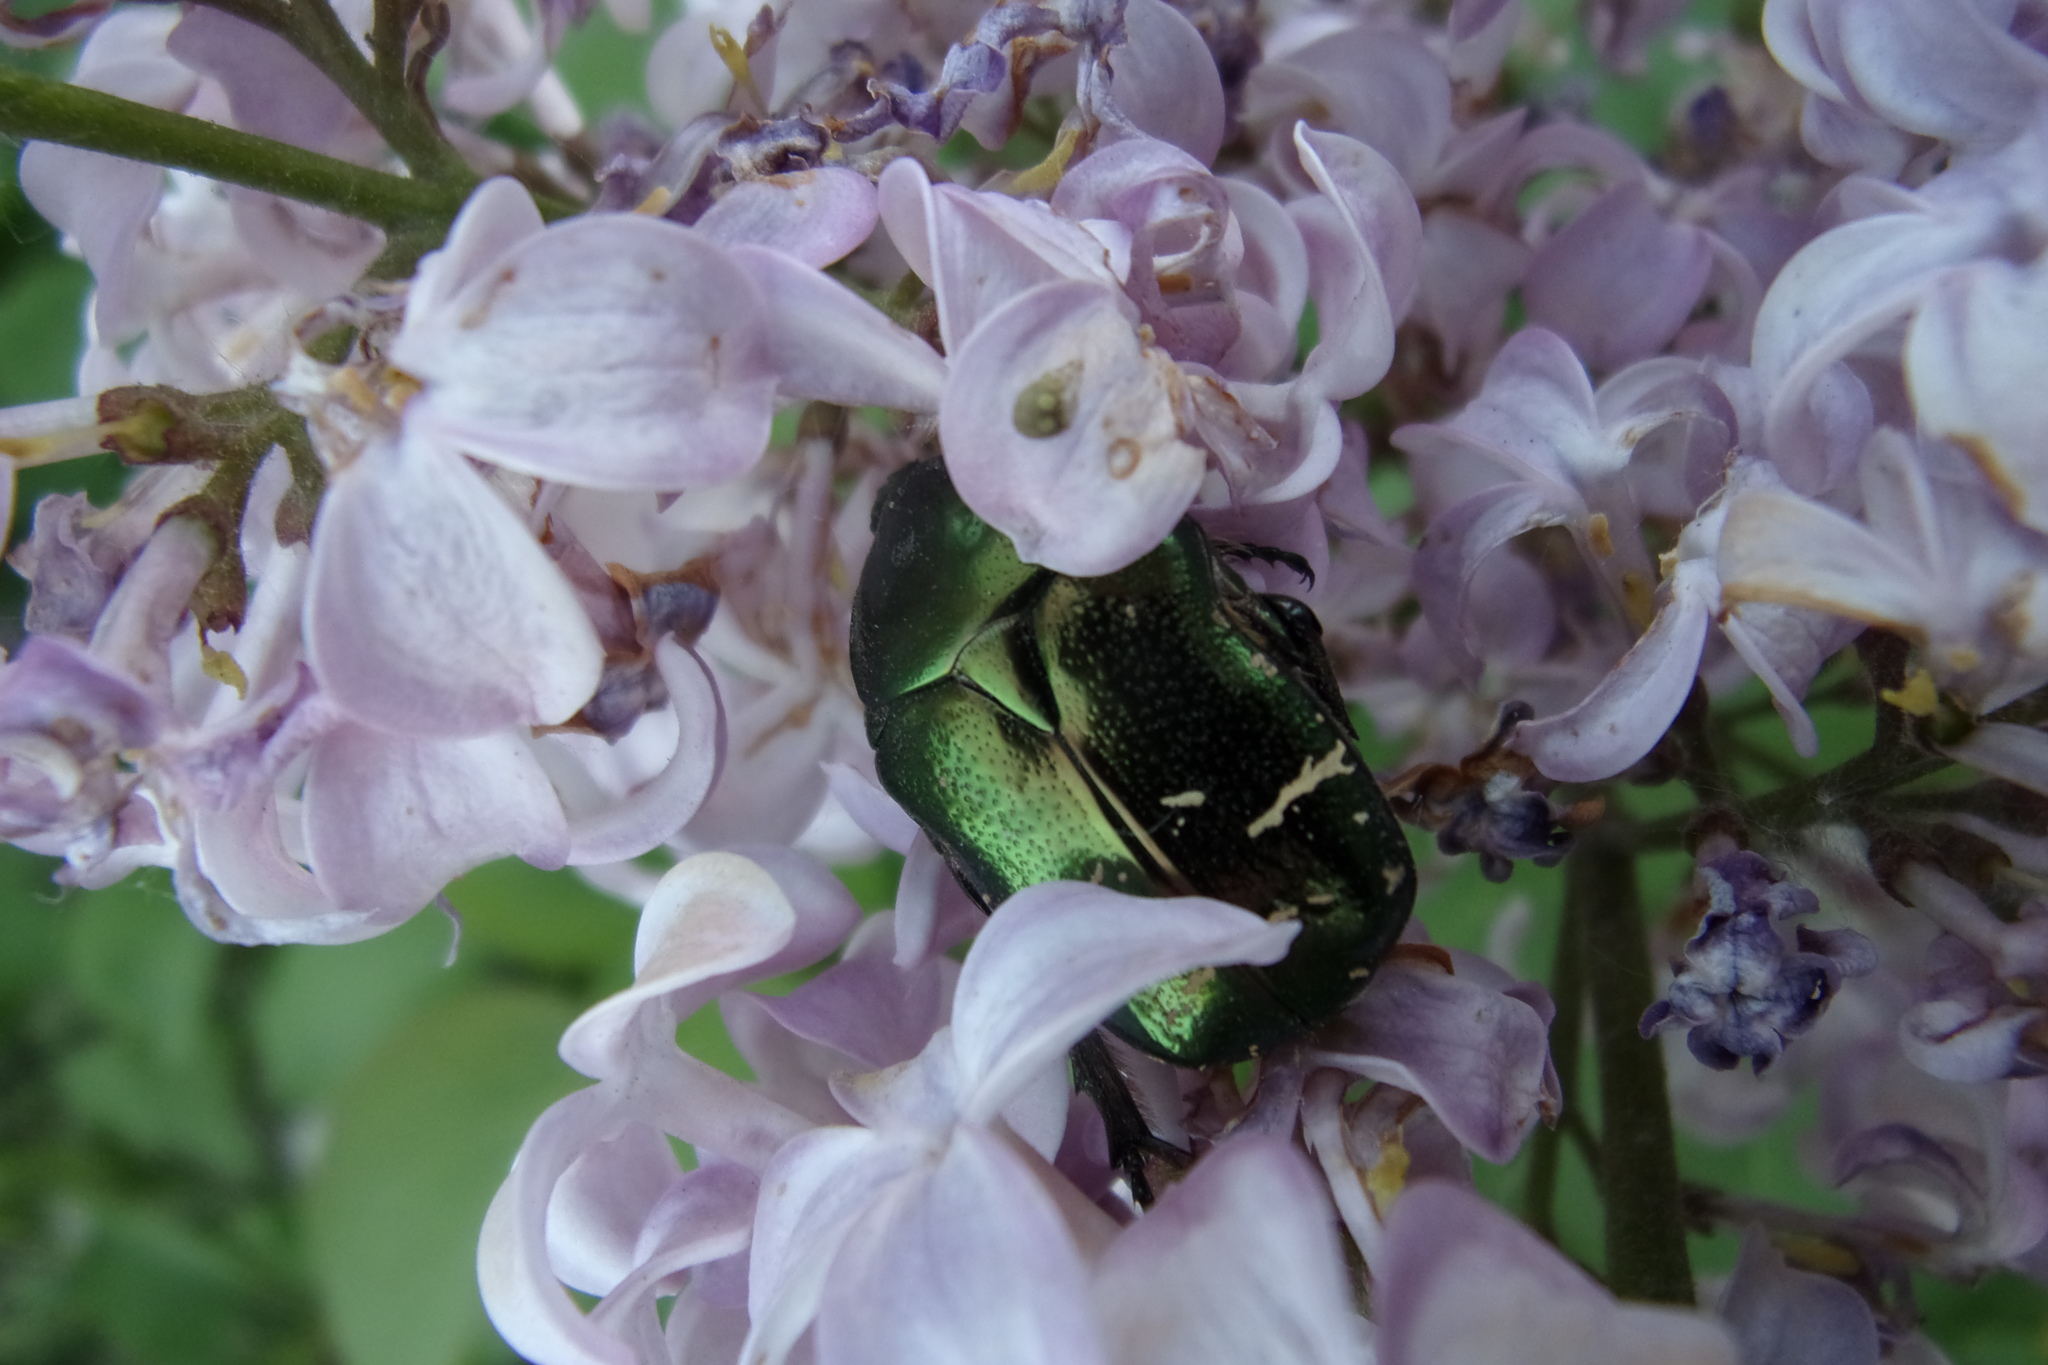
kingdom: Animalia
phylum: Arthropoda
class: Insecta
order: Coleoptera
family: Scarabaeidae
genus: Cetonia
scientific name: Cetonia aurata
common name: Rose chafer
